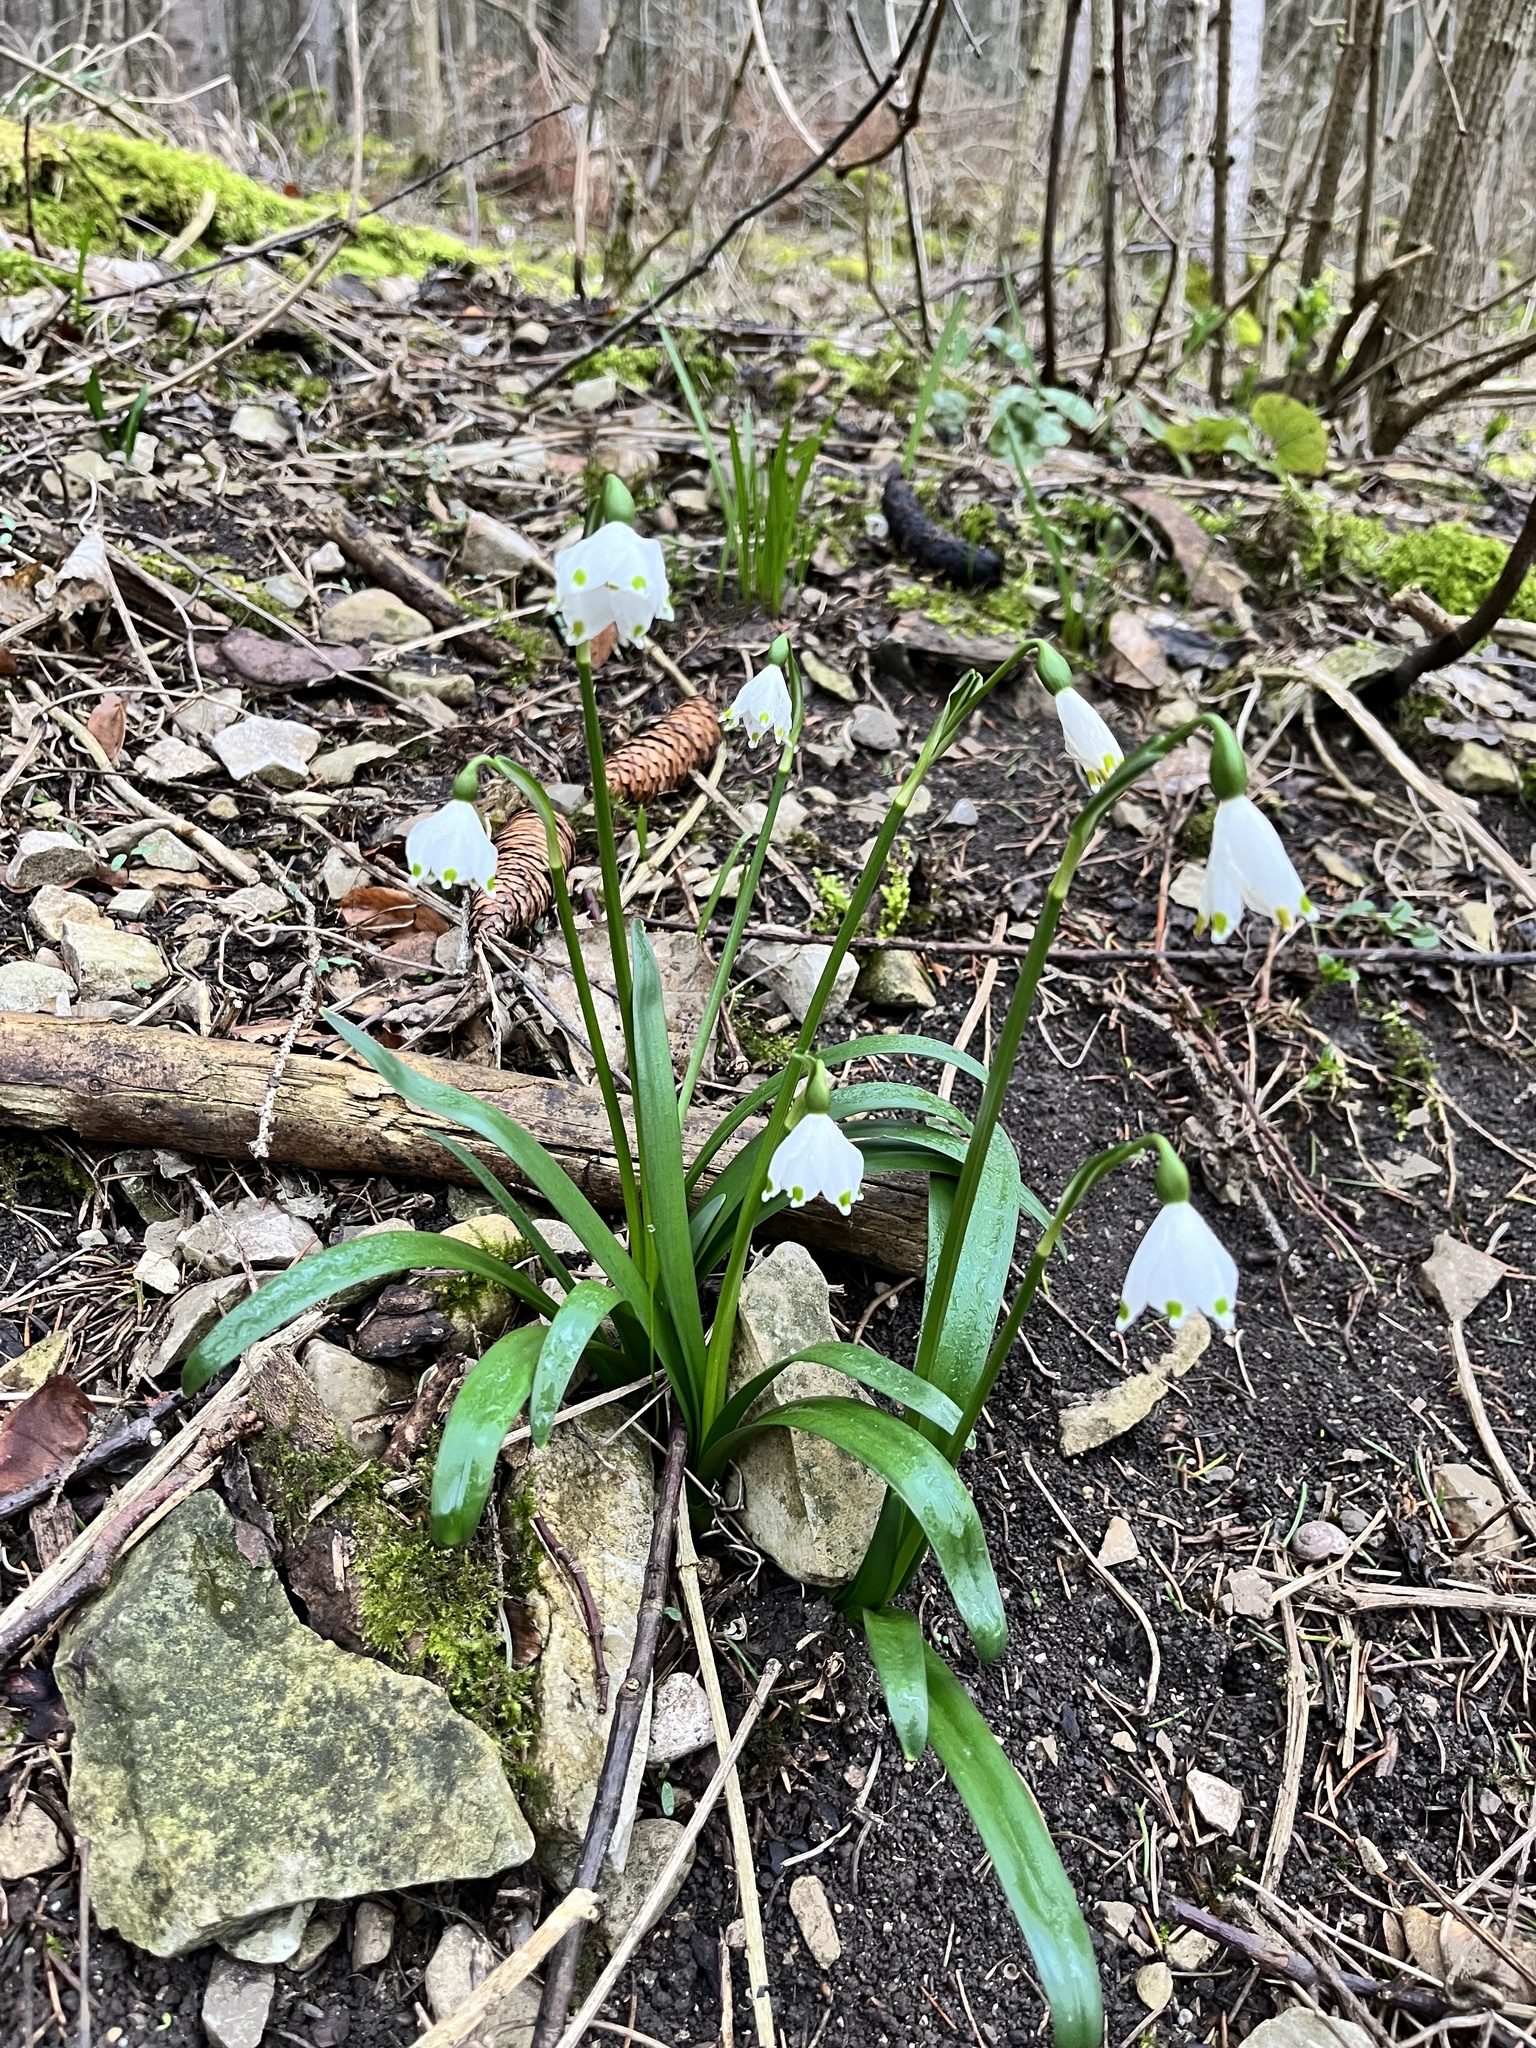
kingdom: Plantae
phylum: Tracheophyta
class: Liliopsida
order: Asparagales
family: Amaryllidaceae
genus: Leucojum
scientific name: Leucojum vernum
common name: Spring snowflake
